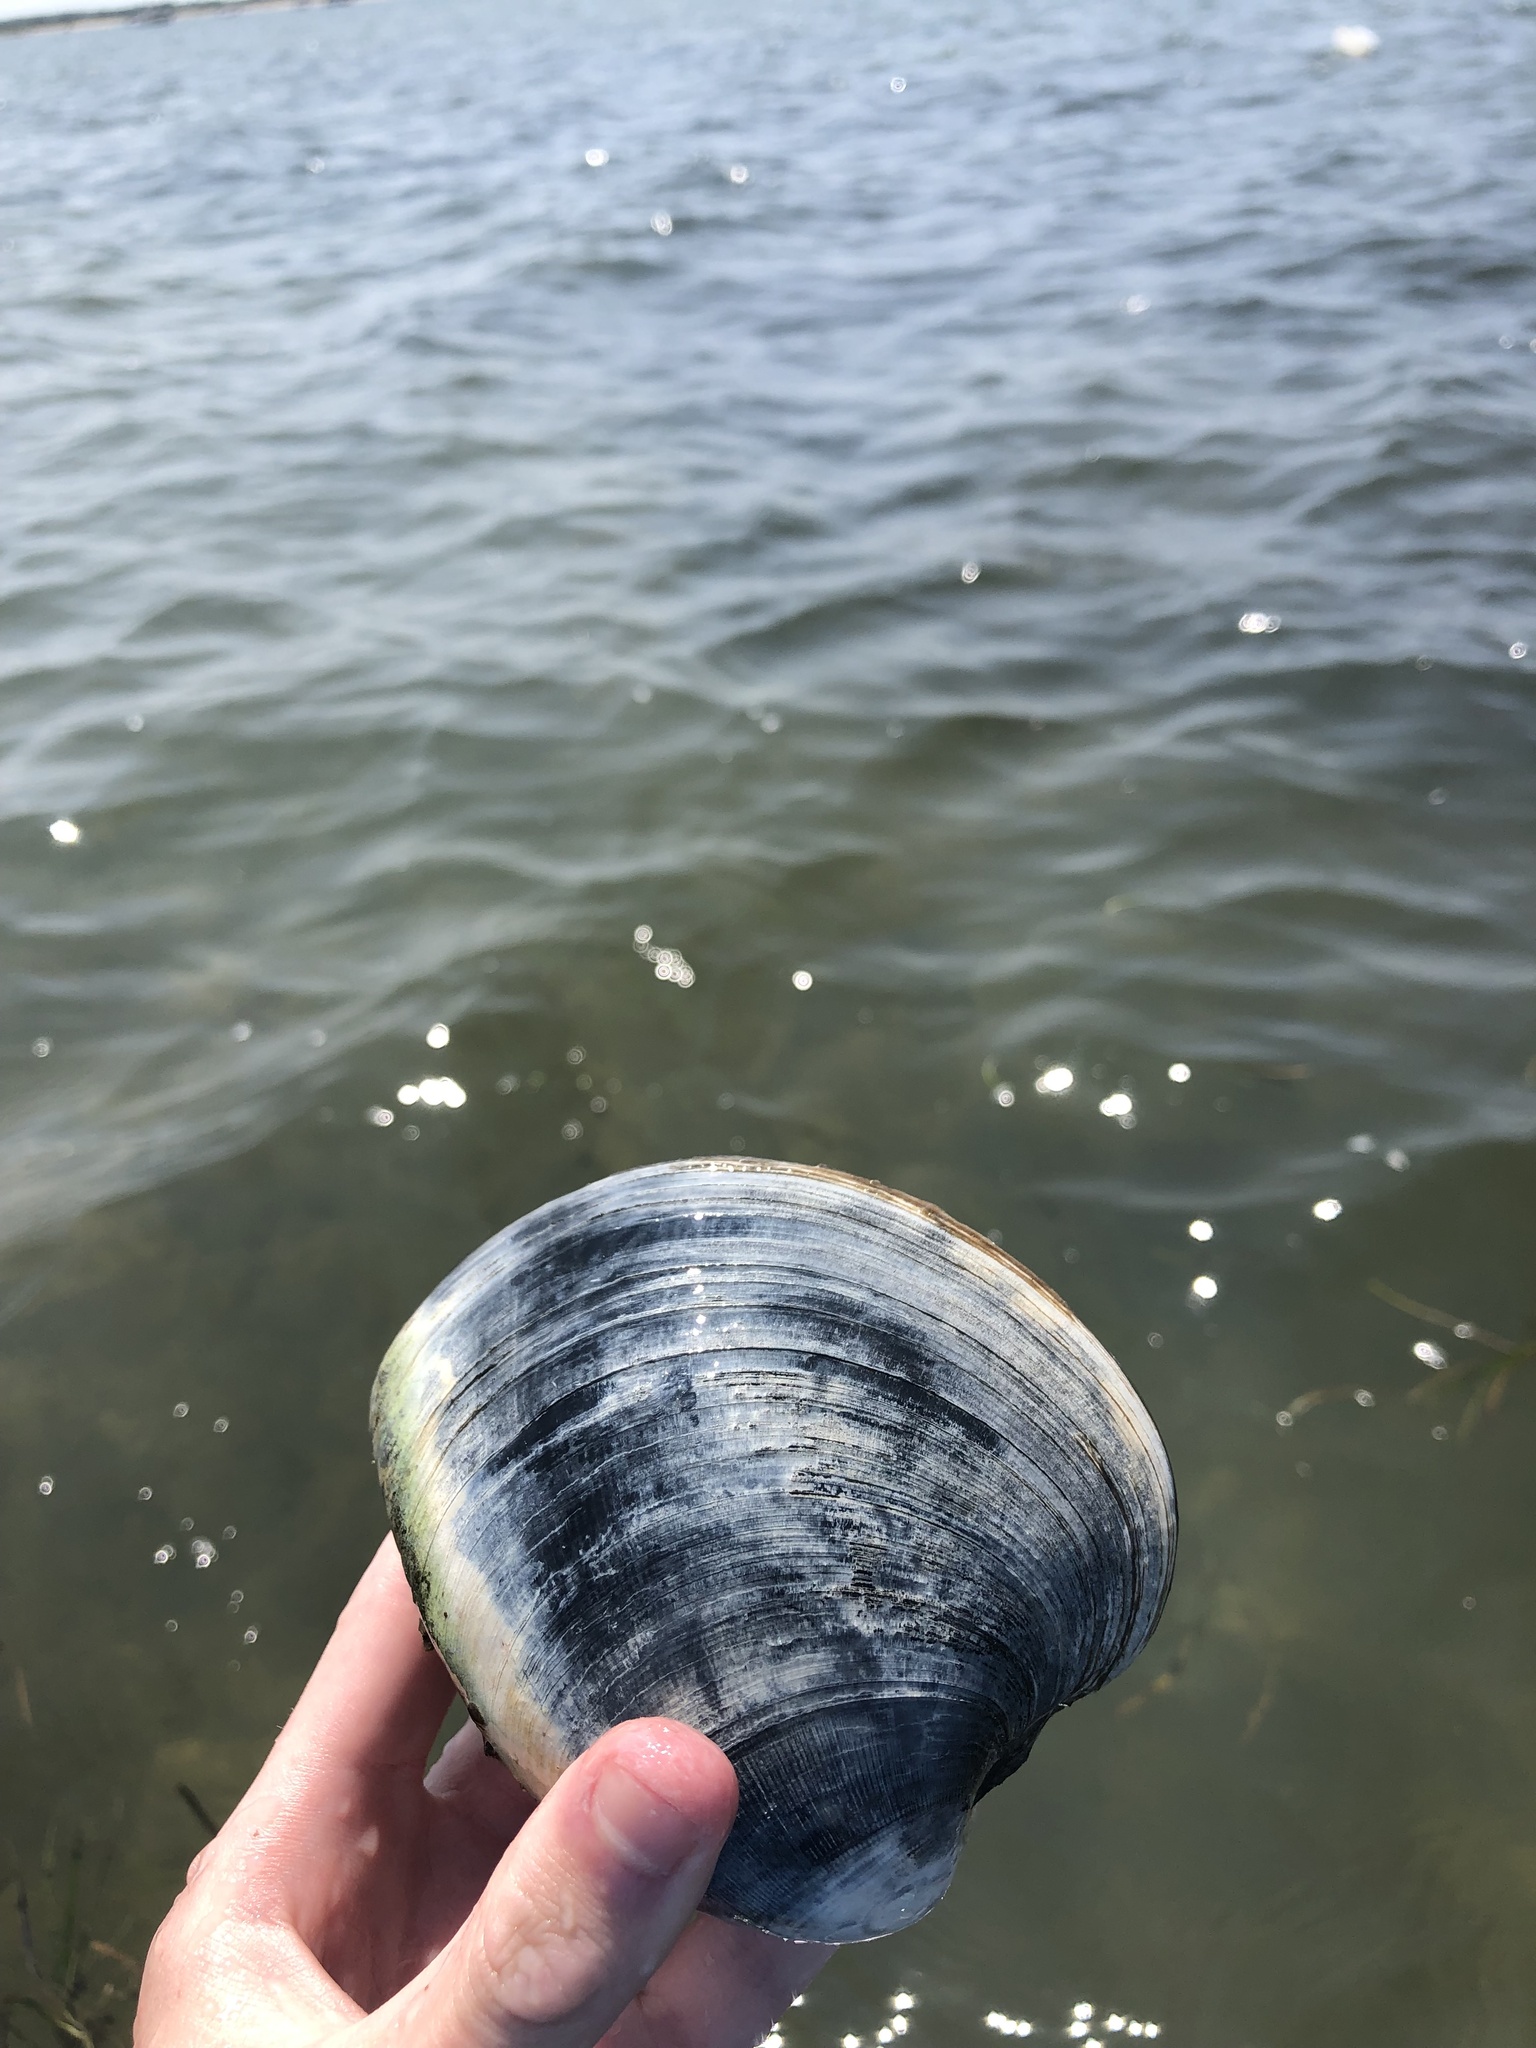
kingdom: Animalia
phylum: Mollusca
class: Bivalvia
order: Venerida
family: Veneridae
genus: Mercenaria
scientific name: Mercenaria mercenaria
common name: American hard-shelled clam
